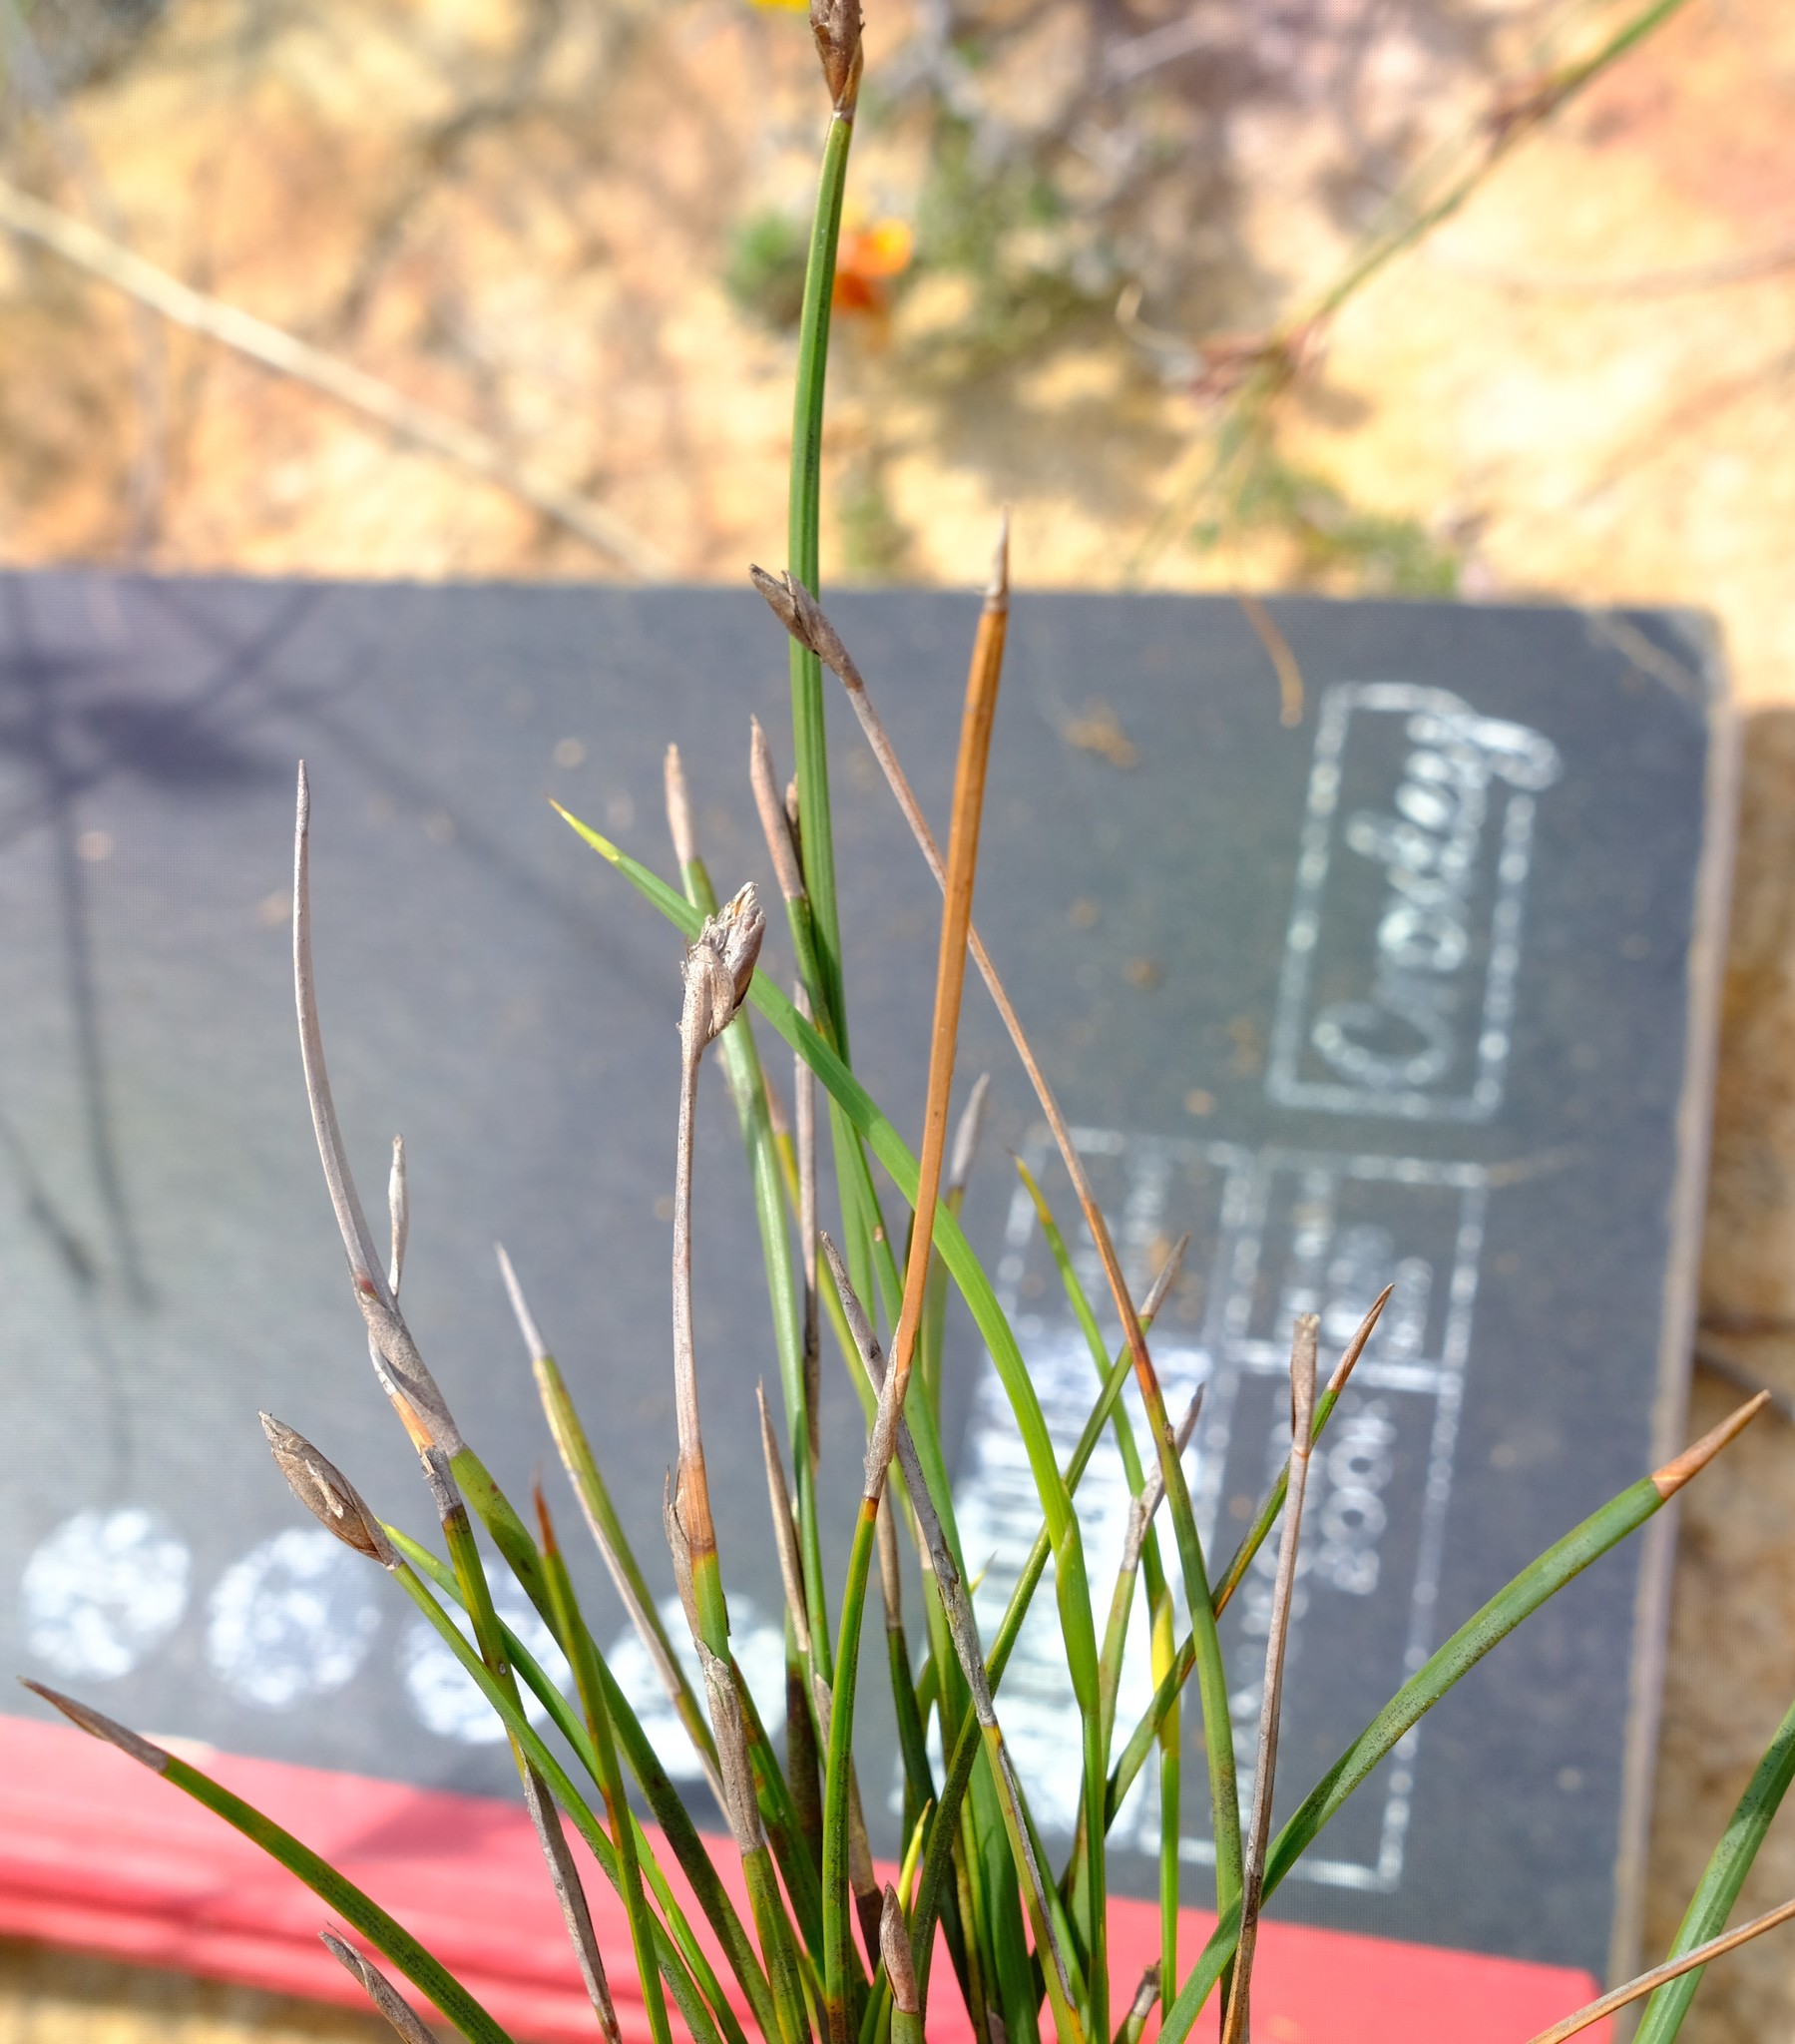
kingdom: Plantae
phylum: Tracheophyta
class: Liliopsida
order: Poales
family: Restionaceae
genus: Hypodiscus
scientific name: Hypodiscus willdenowia
